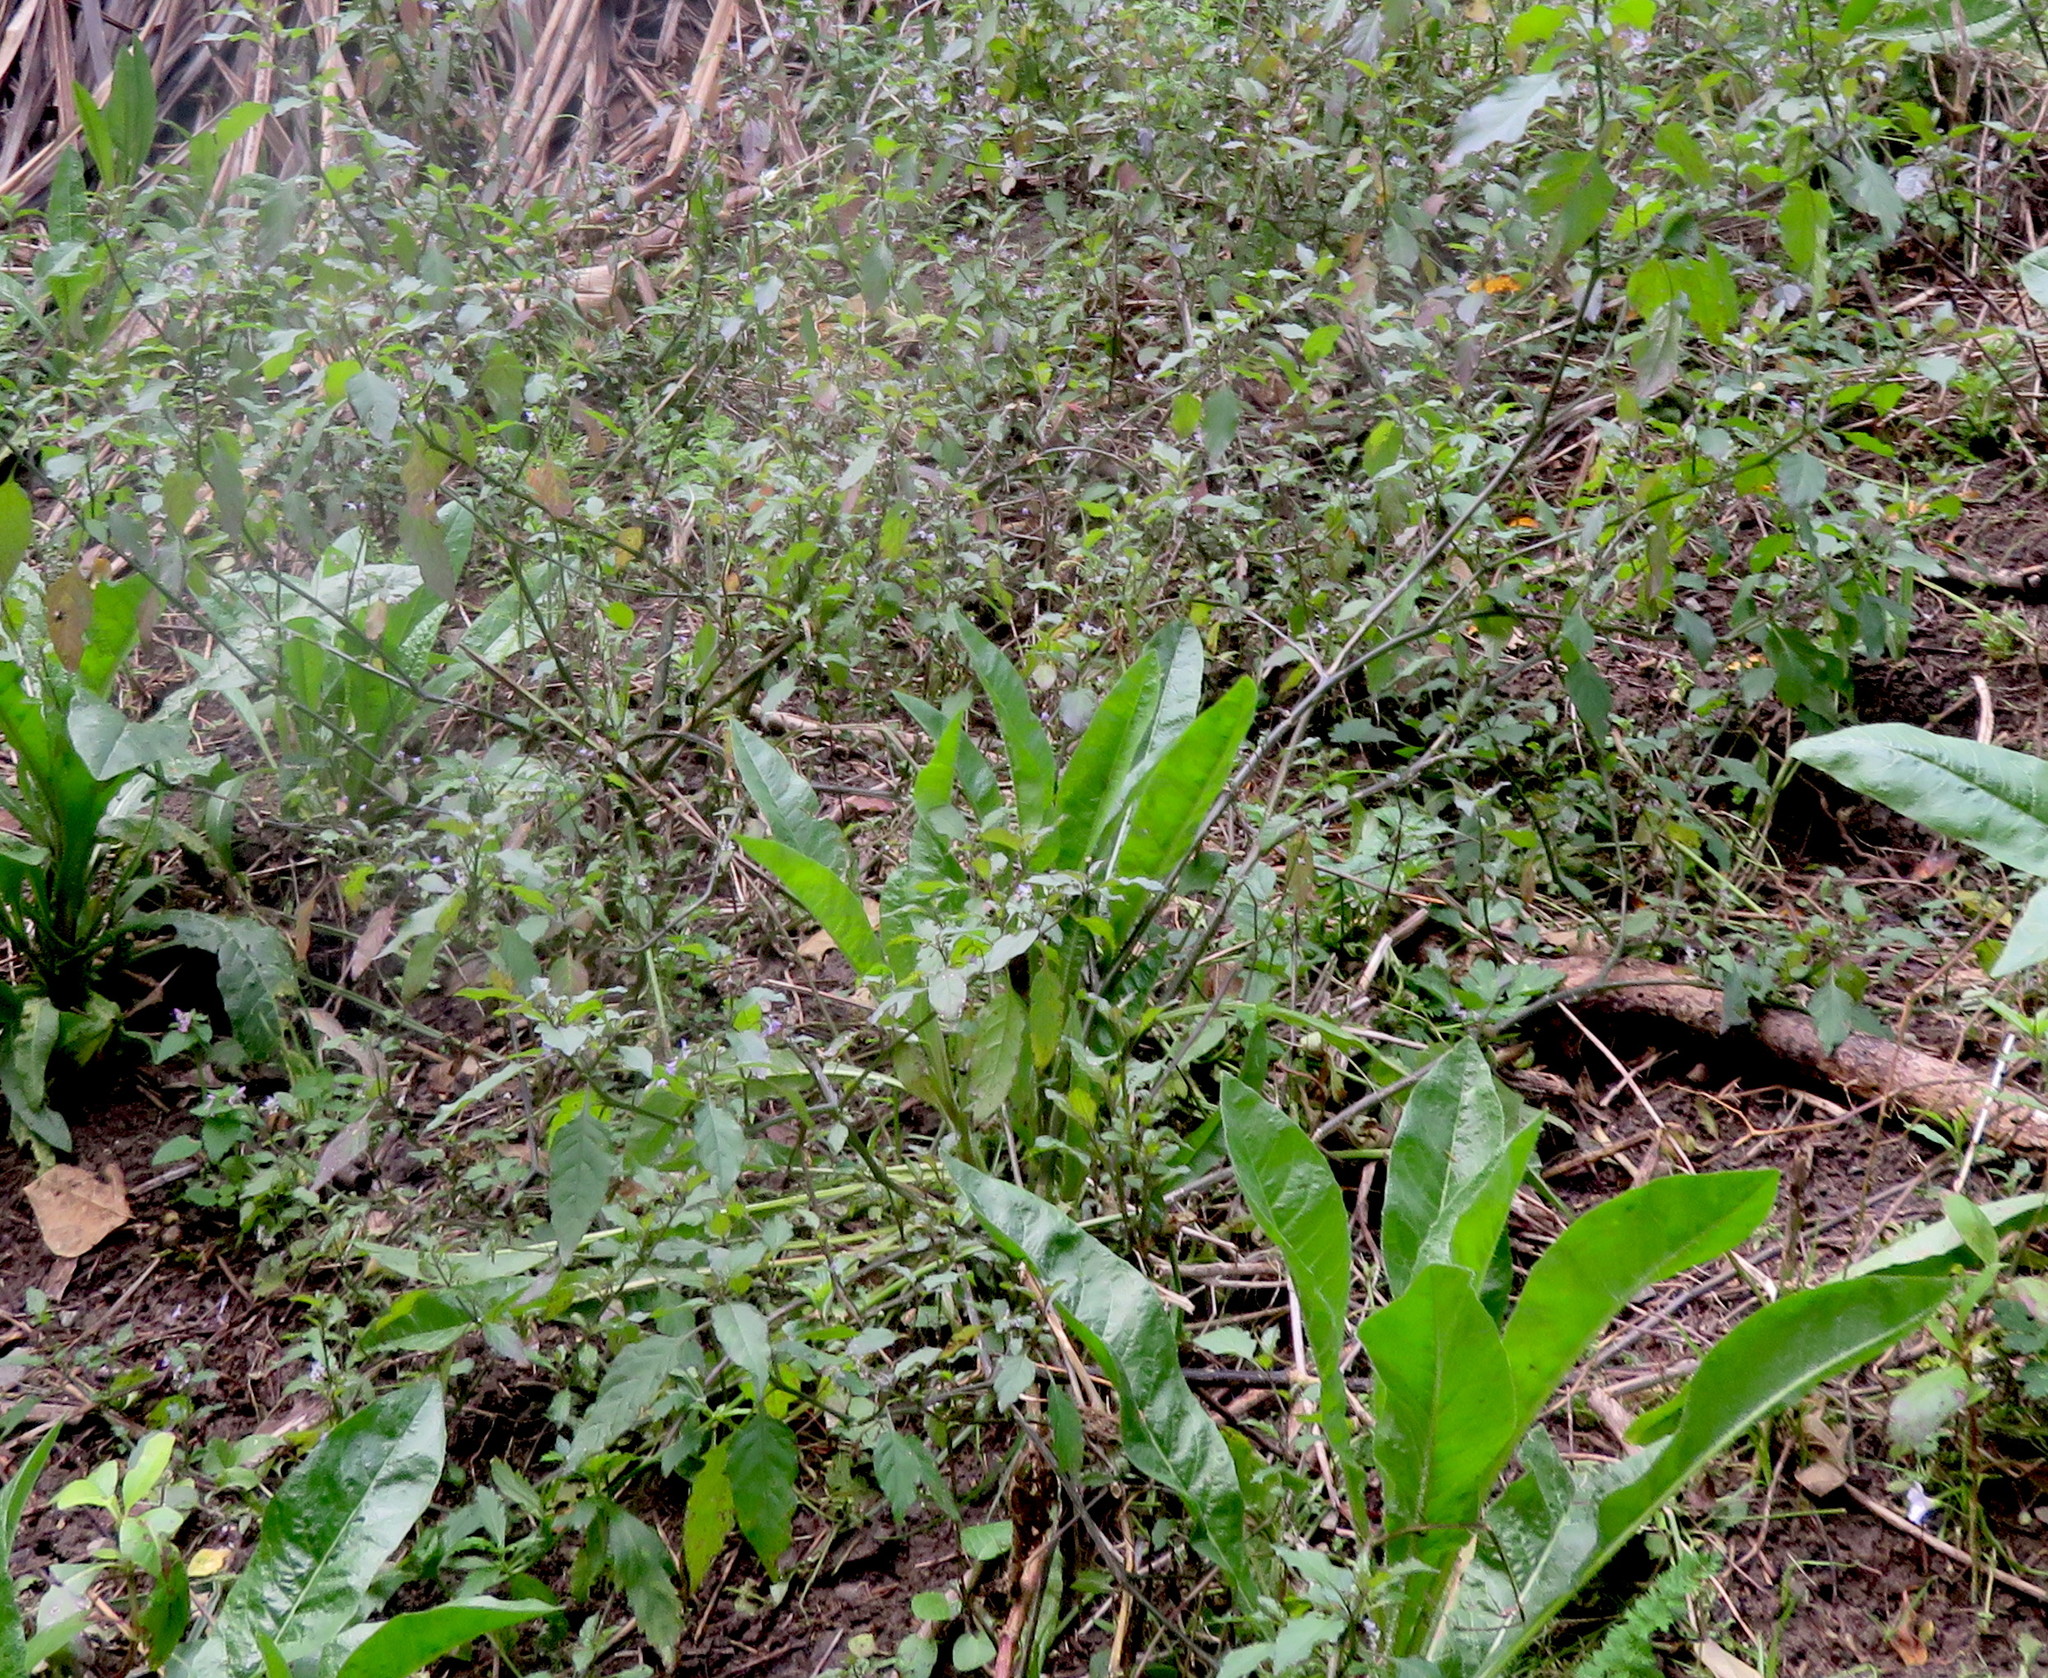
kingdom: Plantae
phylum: Tracheophyta
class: Magnoliopsida
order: Asterales
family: Asteraceae
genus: Helminthotheca
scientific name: Helminthotheca echioides
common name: Ox-tongue
